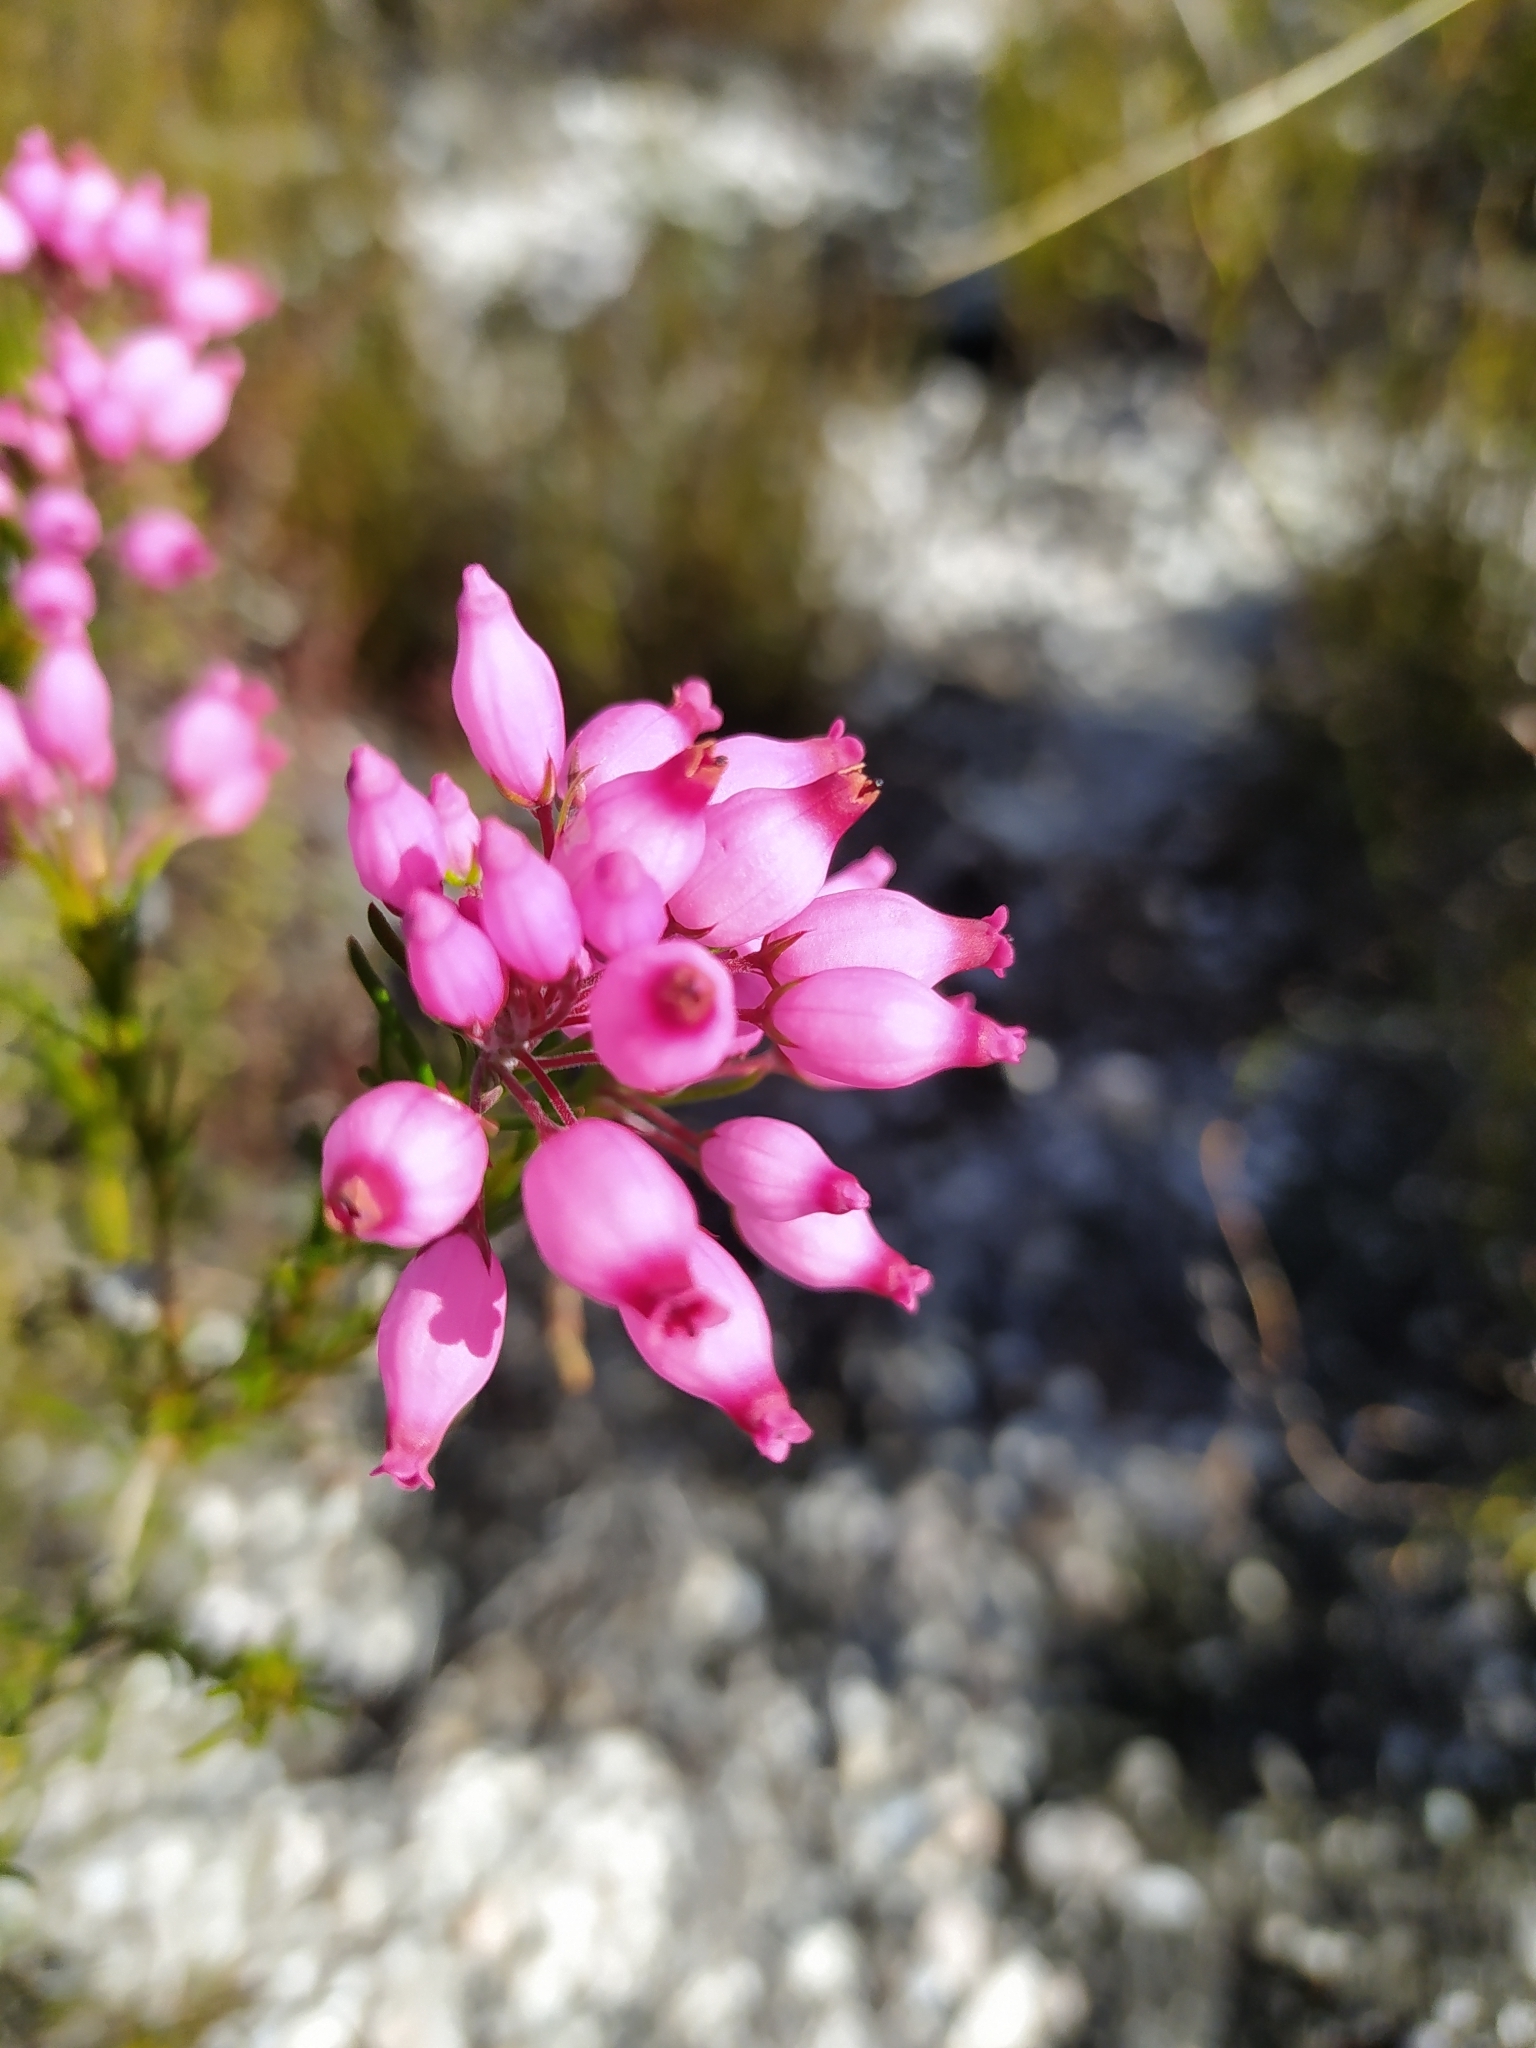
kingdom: Plantae
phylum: Tracheophyta
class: Magnoliopsida
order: Ericales
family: Ericaceae
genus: Erica
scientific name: Erica inflata
